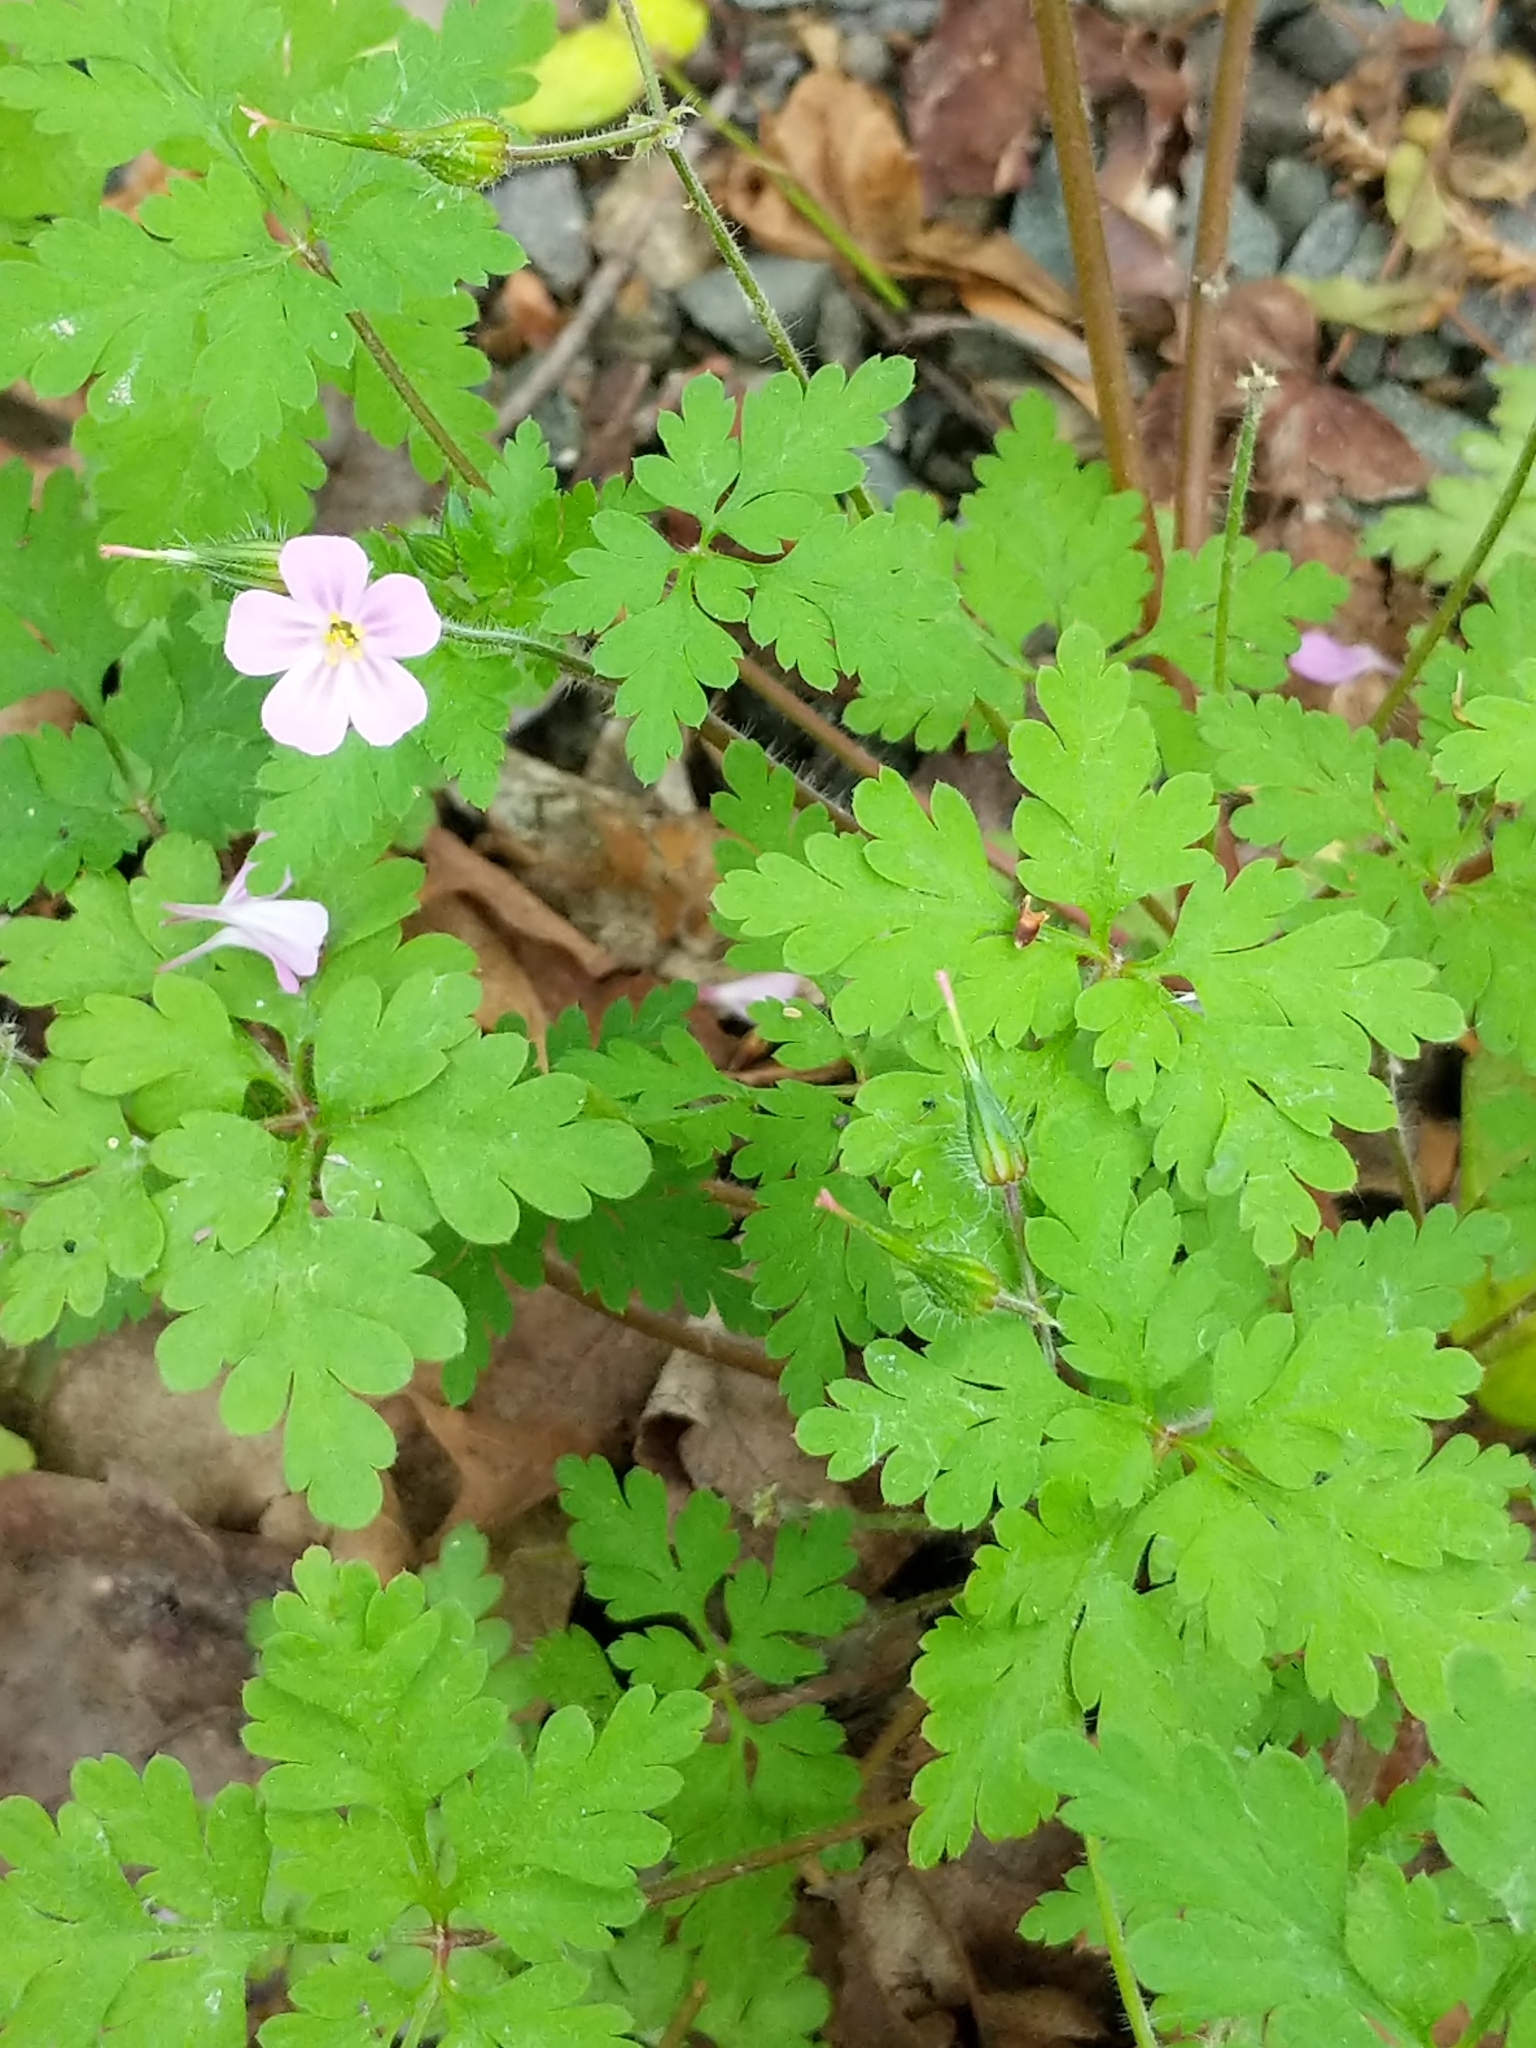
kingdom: Plantae
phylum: Tracheophyta
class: Magnoliopsida
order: Geraniales
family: Geraniaceae
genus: Geranium
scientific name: Geranium robertianum
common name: Herb-robert
